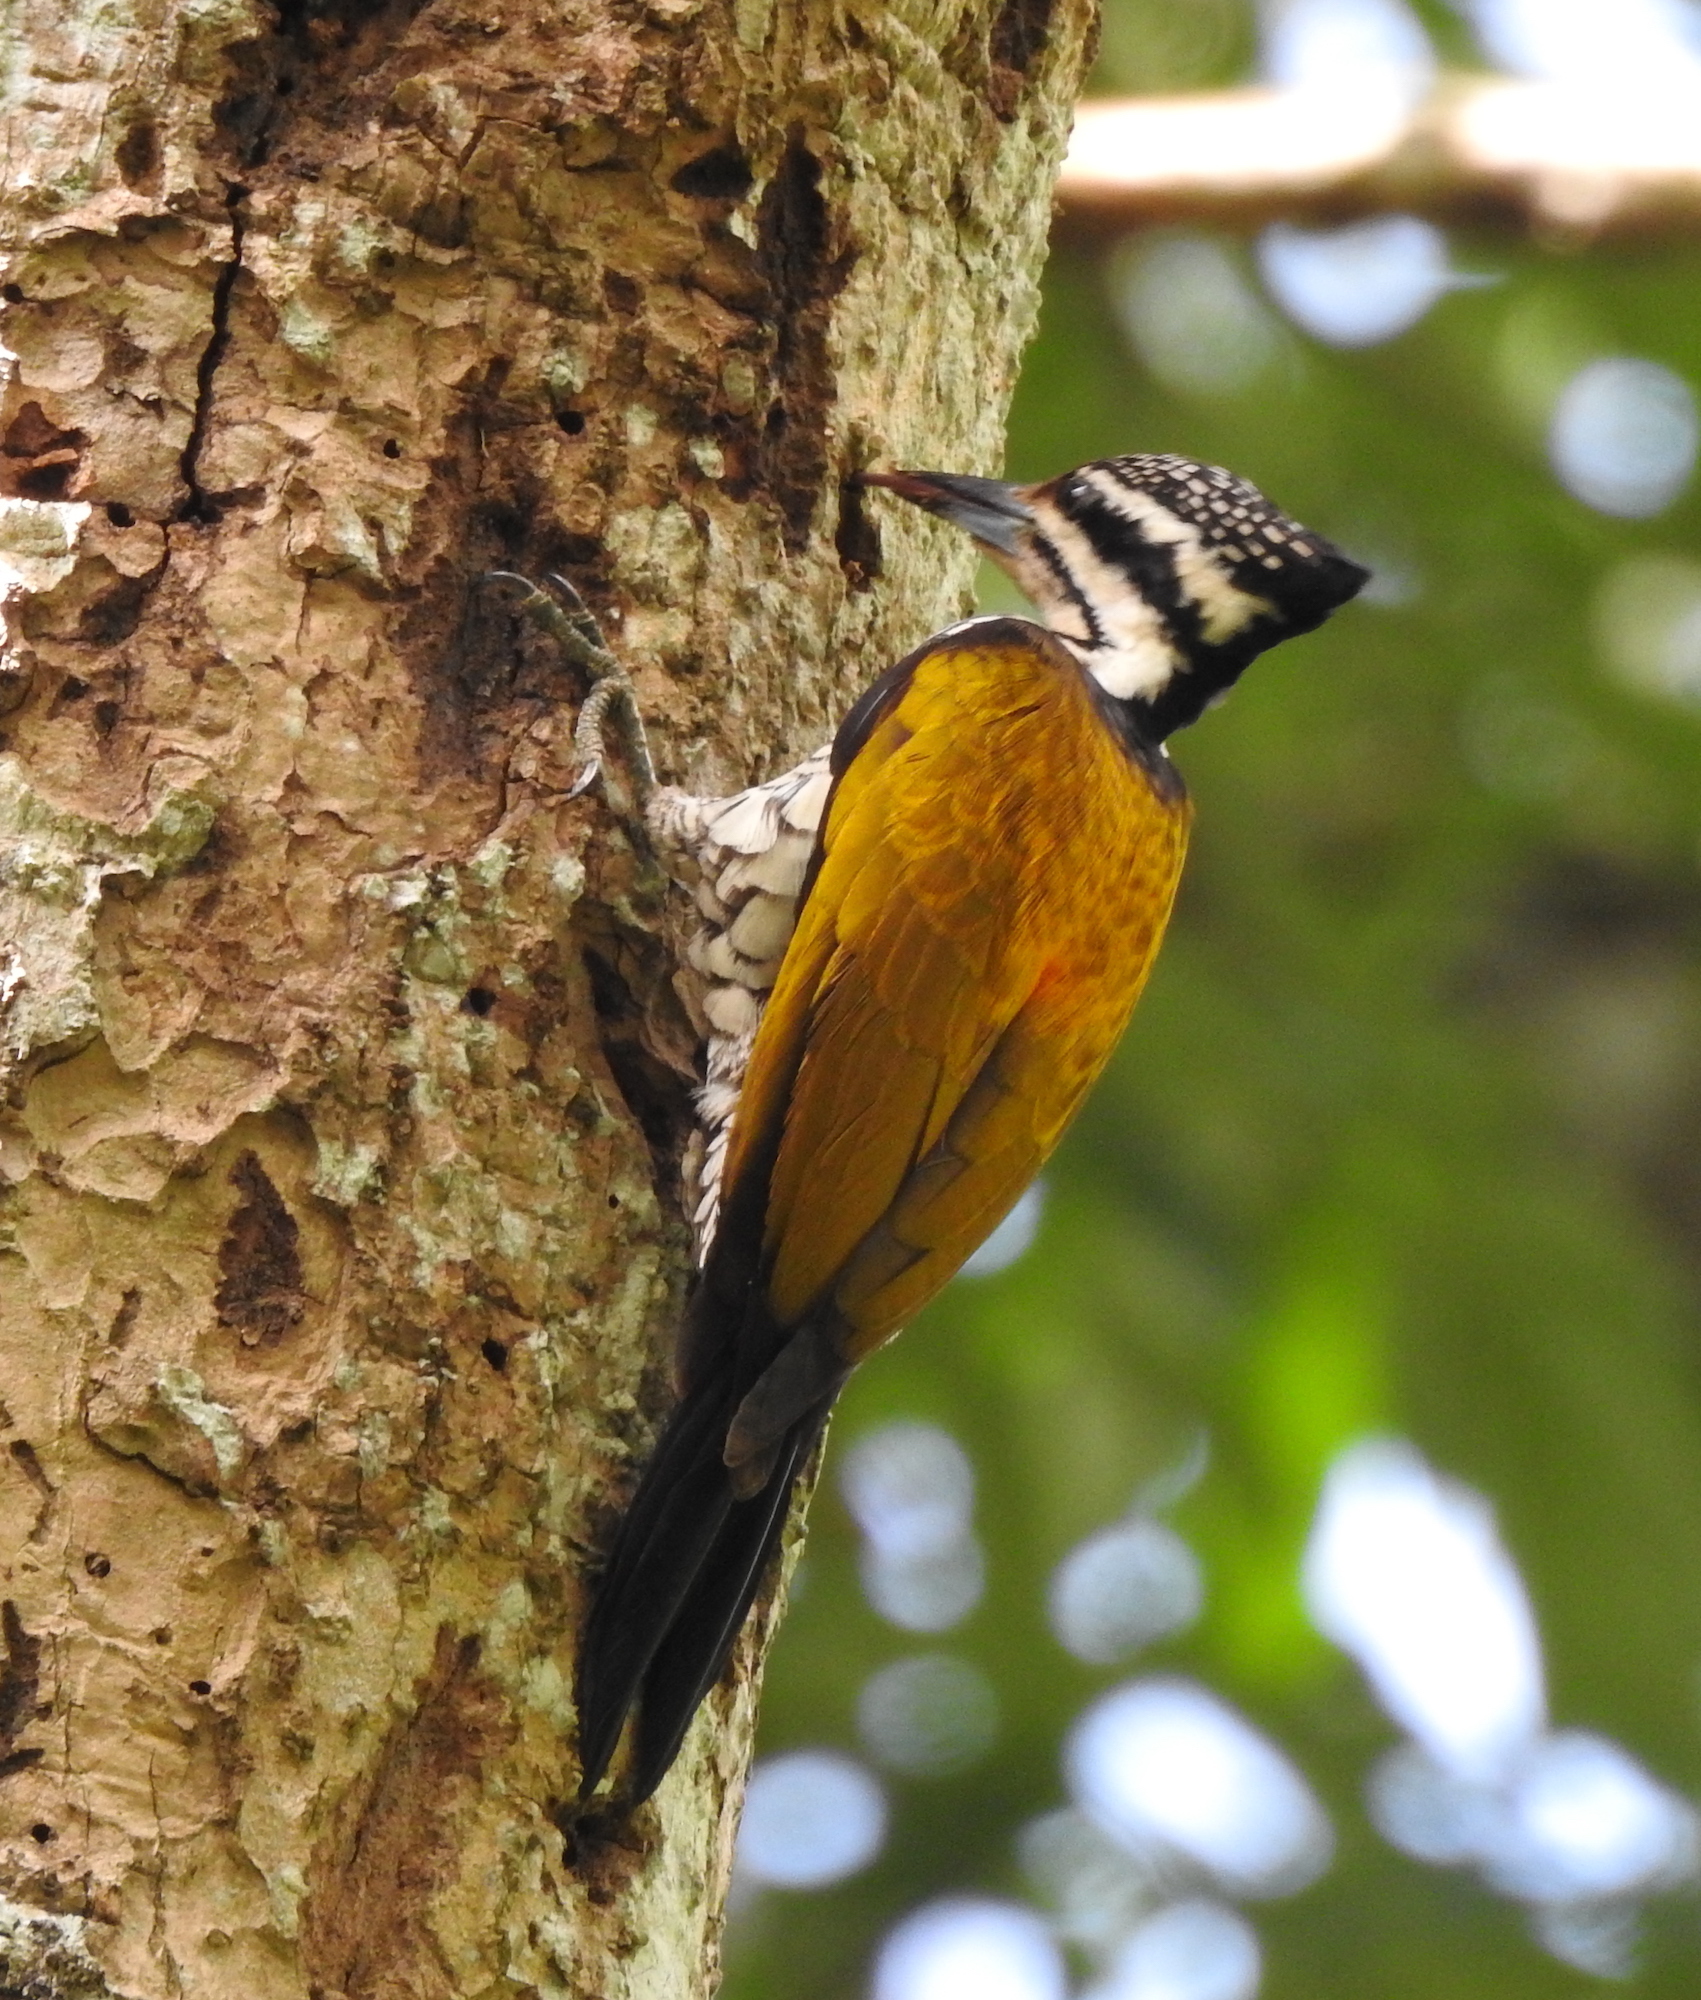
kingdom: Animalia
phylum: Chordata
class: Aves
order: Piciformes
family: Picidae
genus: Dinopium
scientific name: Dinopium javanense
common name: Common flameback
